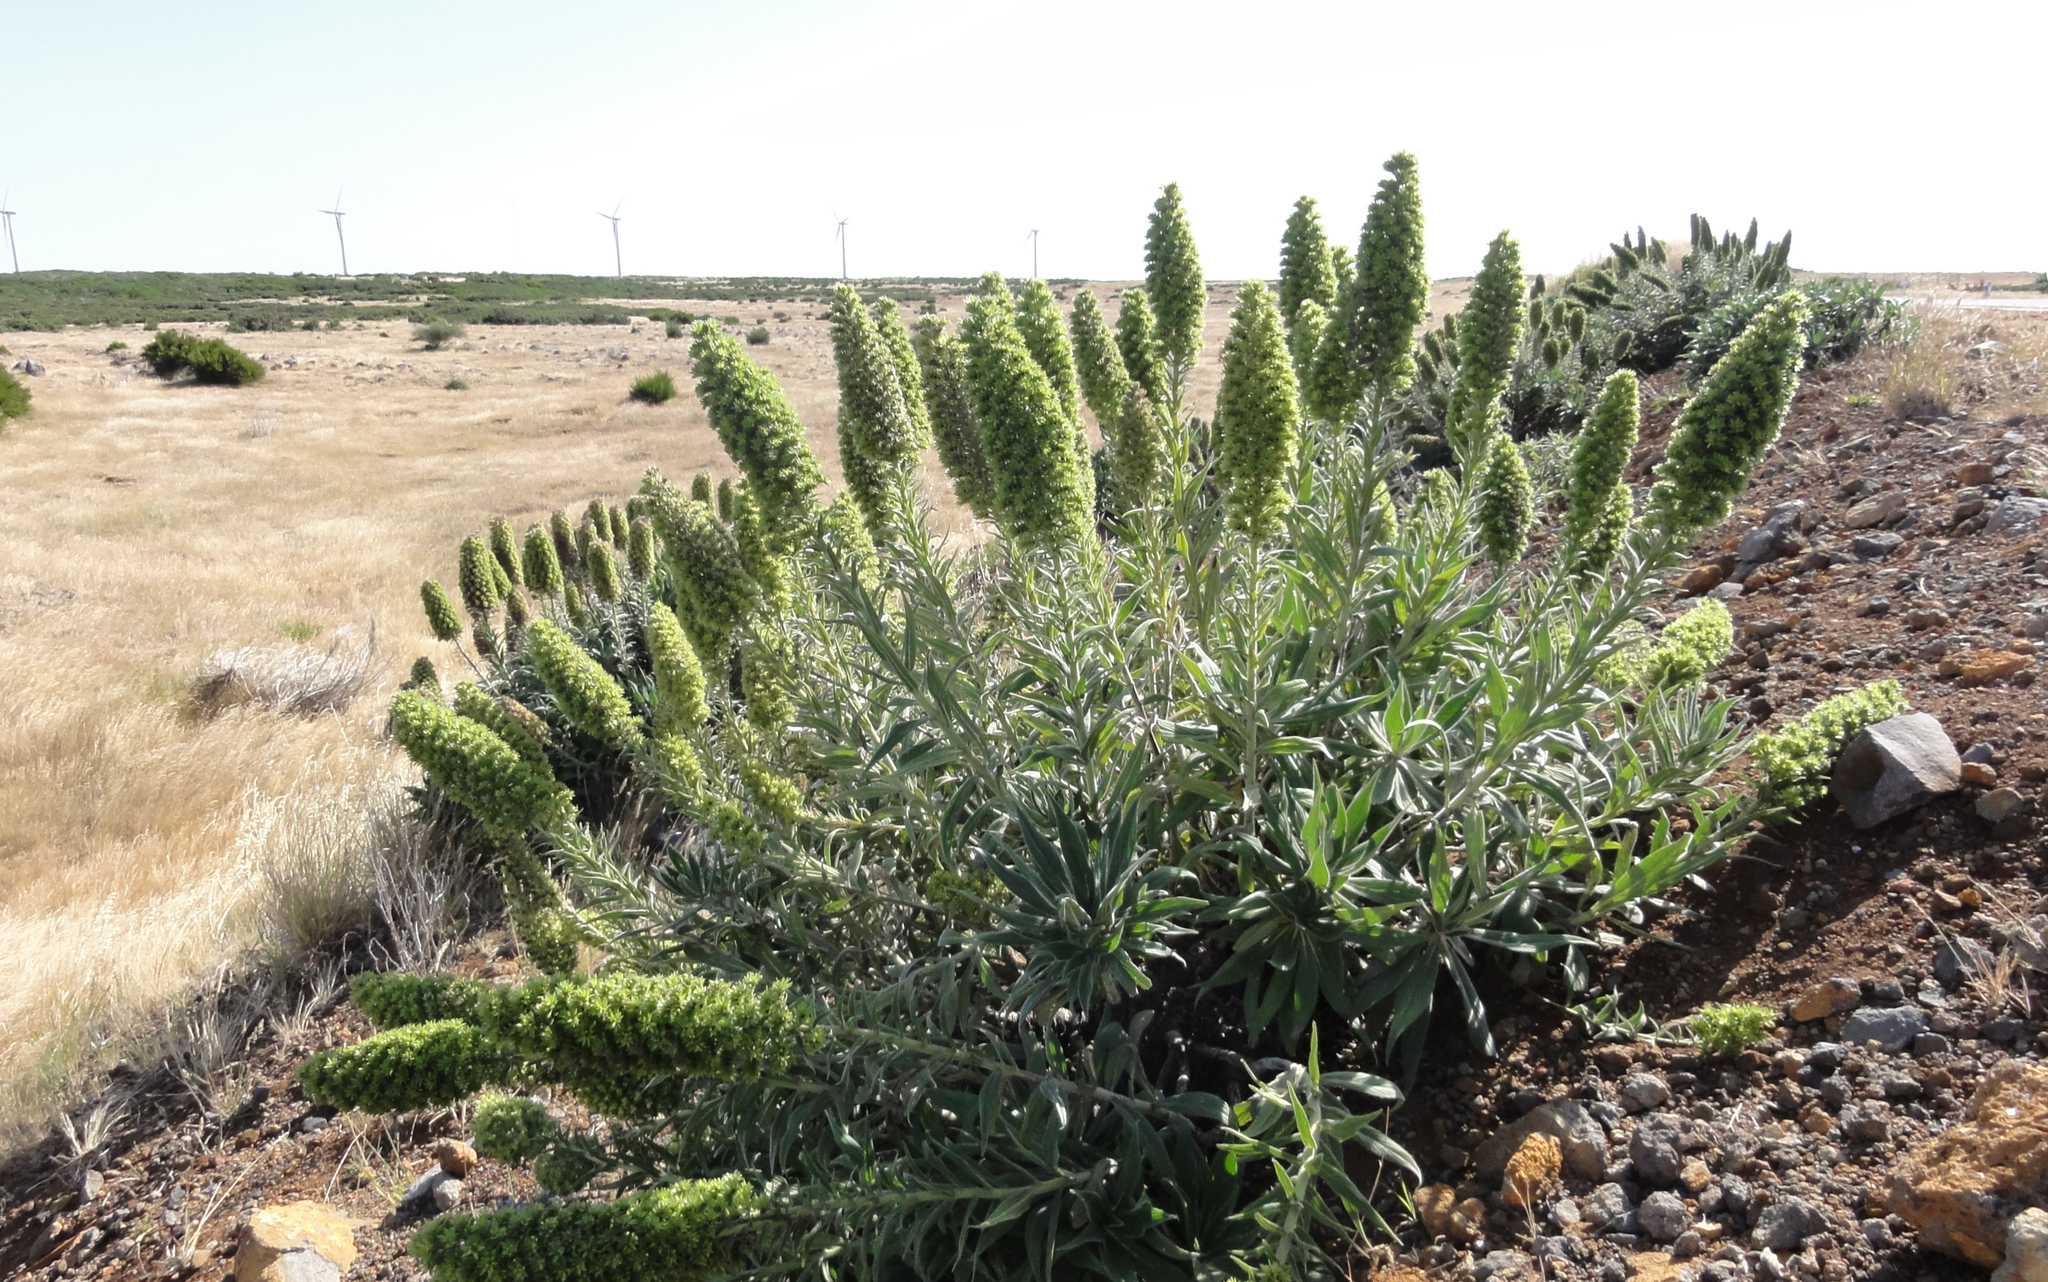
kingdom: Plantae
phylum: Tracheophyta
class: Magnoliopsida
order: Boraginales
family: Boraginaceae
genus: Echium
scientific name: Echium candicans
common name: Pride of madeira
